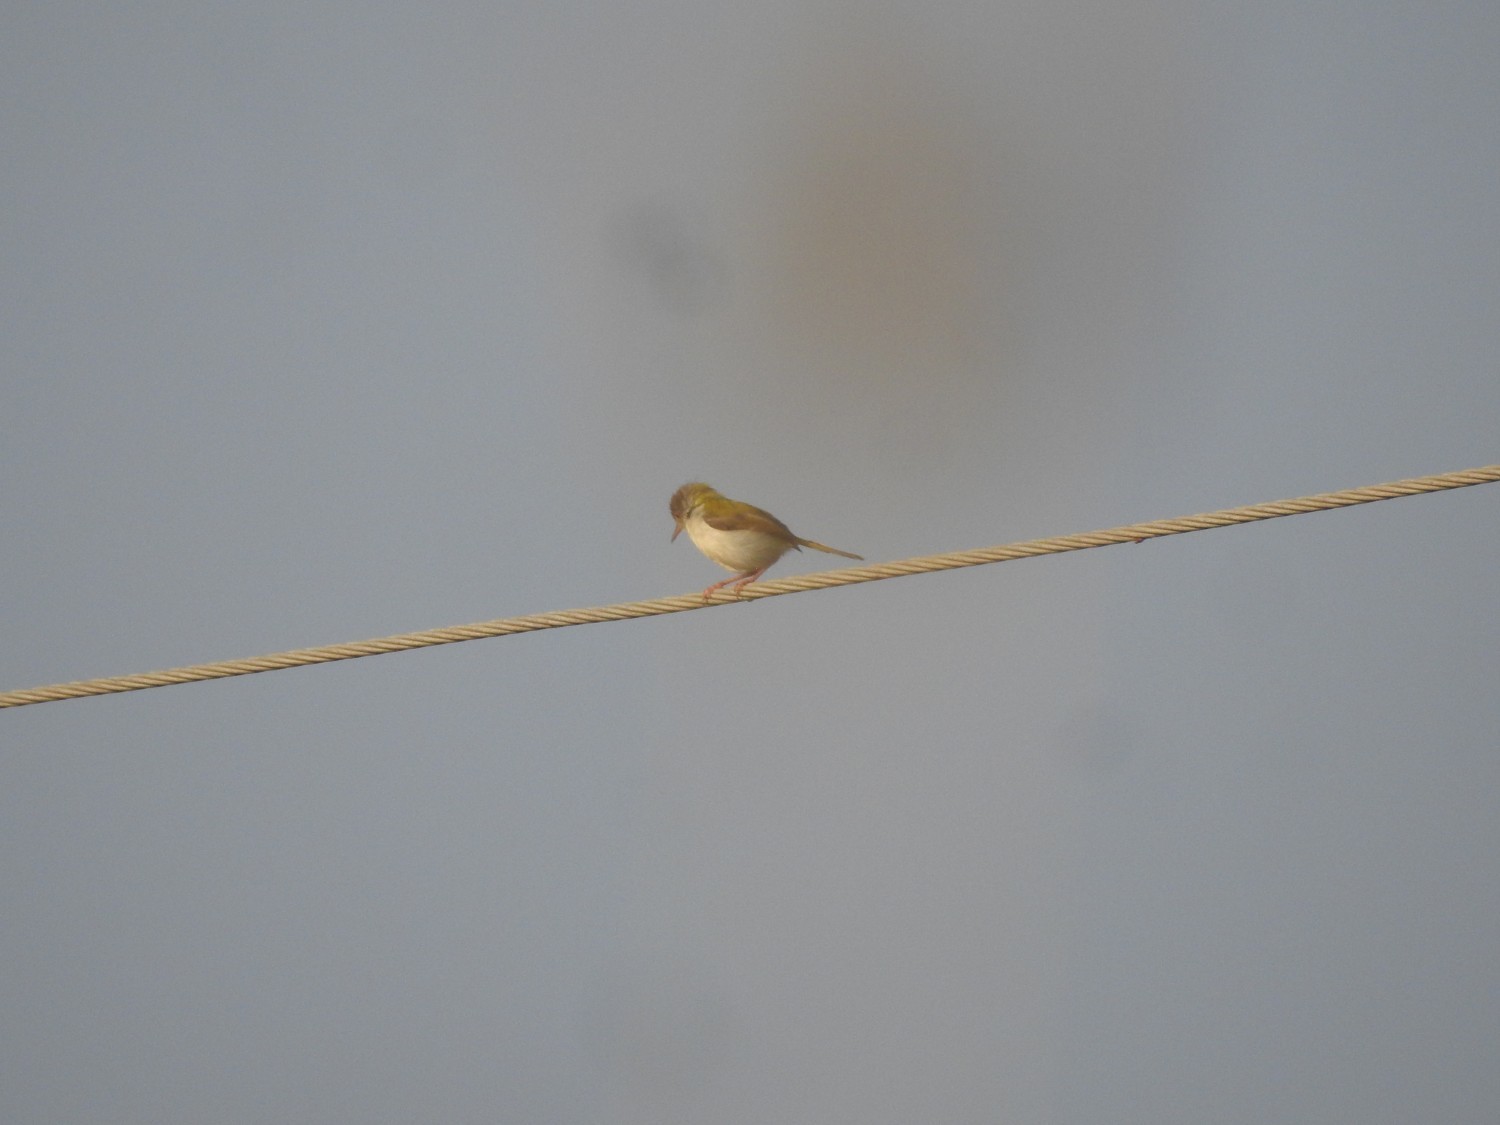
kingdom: Animalia
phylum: Chordata
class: Aves
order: Passeriformes
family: Cisticolidae
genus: Orthotomus
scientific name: Orthotomus sutorius
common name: Common tailorbird
